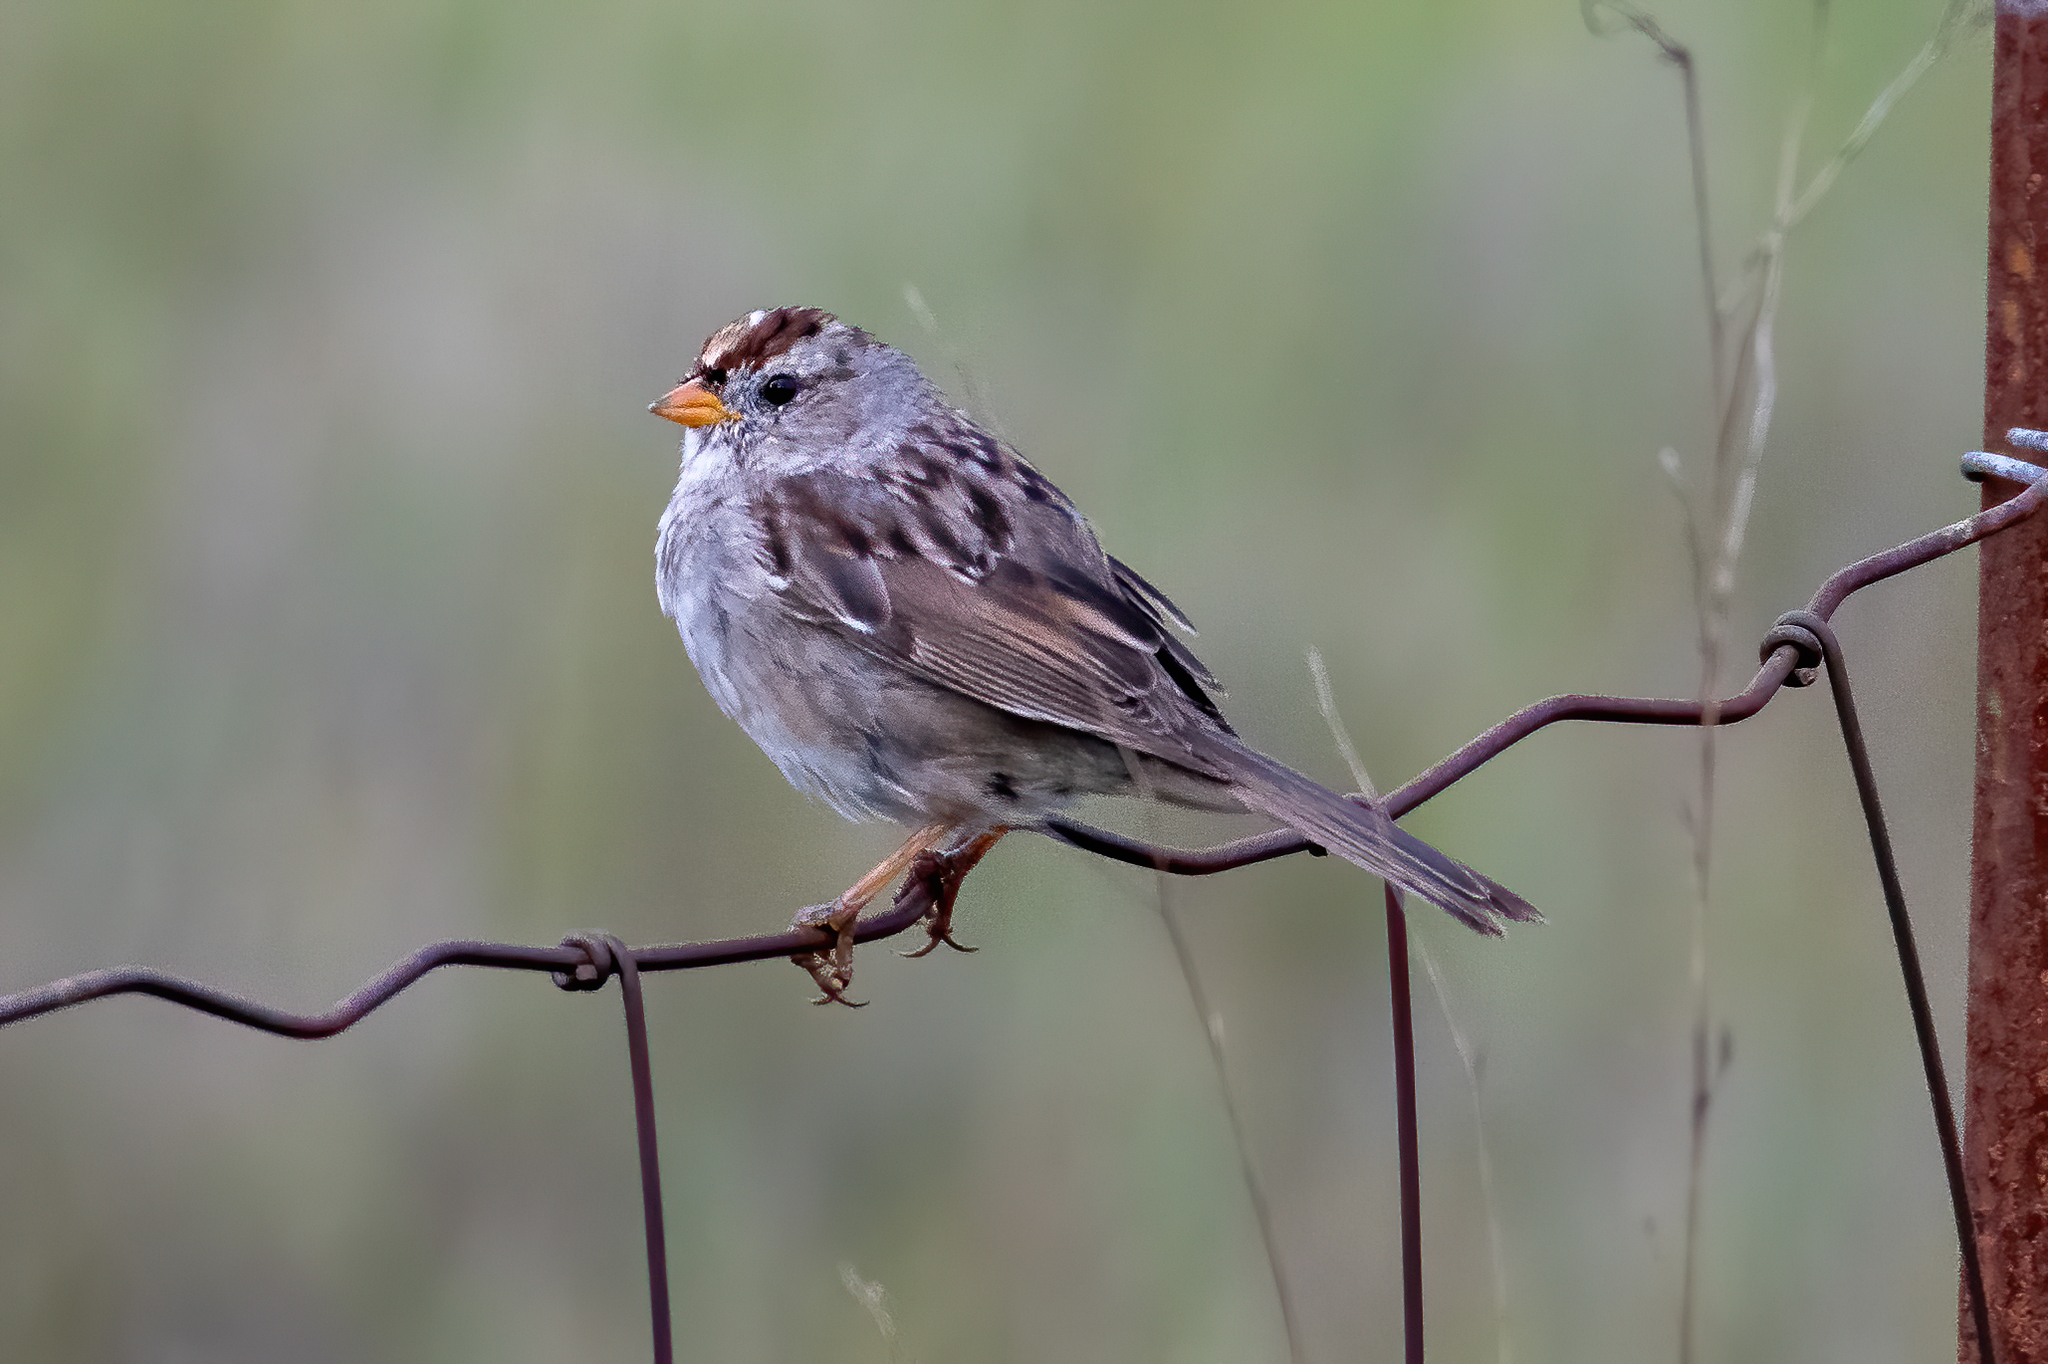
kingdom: Animalia
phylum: Chordata
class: Aves
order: Passeriformes
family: Passerellidae
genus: Zonotrichia
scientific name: Zonotrichia leucophrys
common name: White-crowned sparrow
